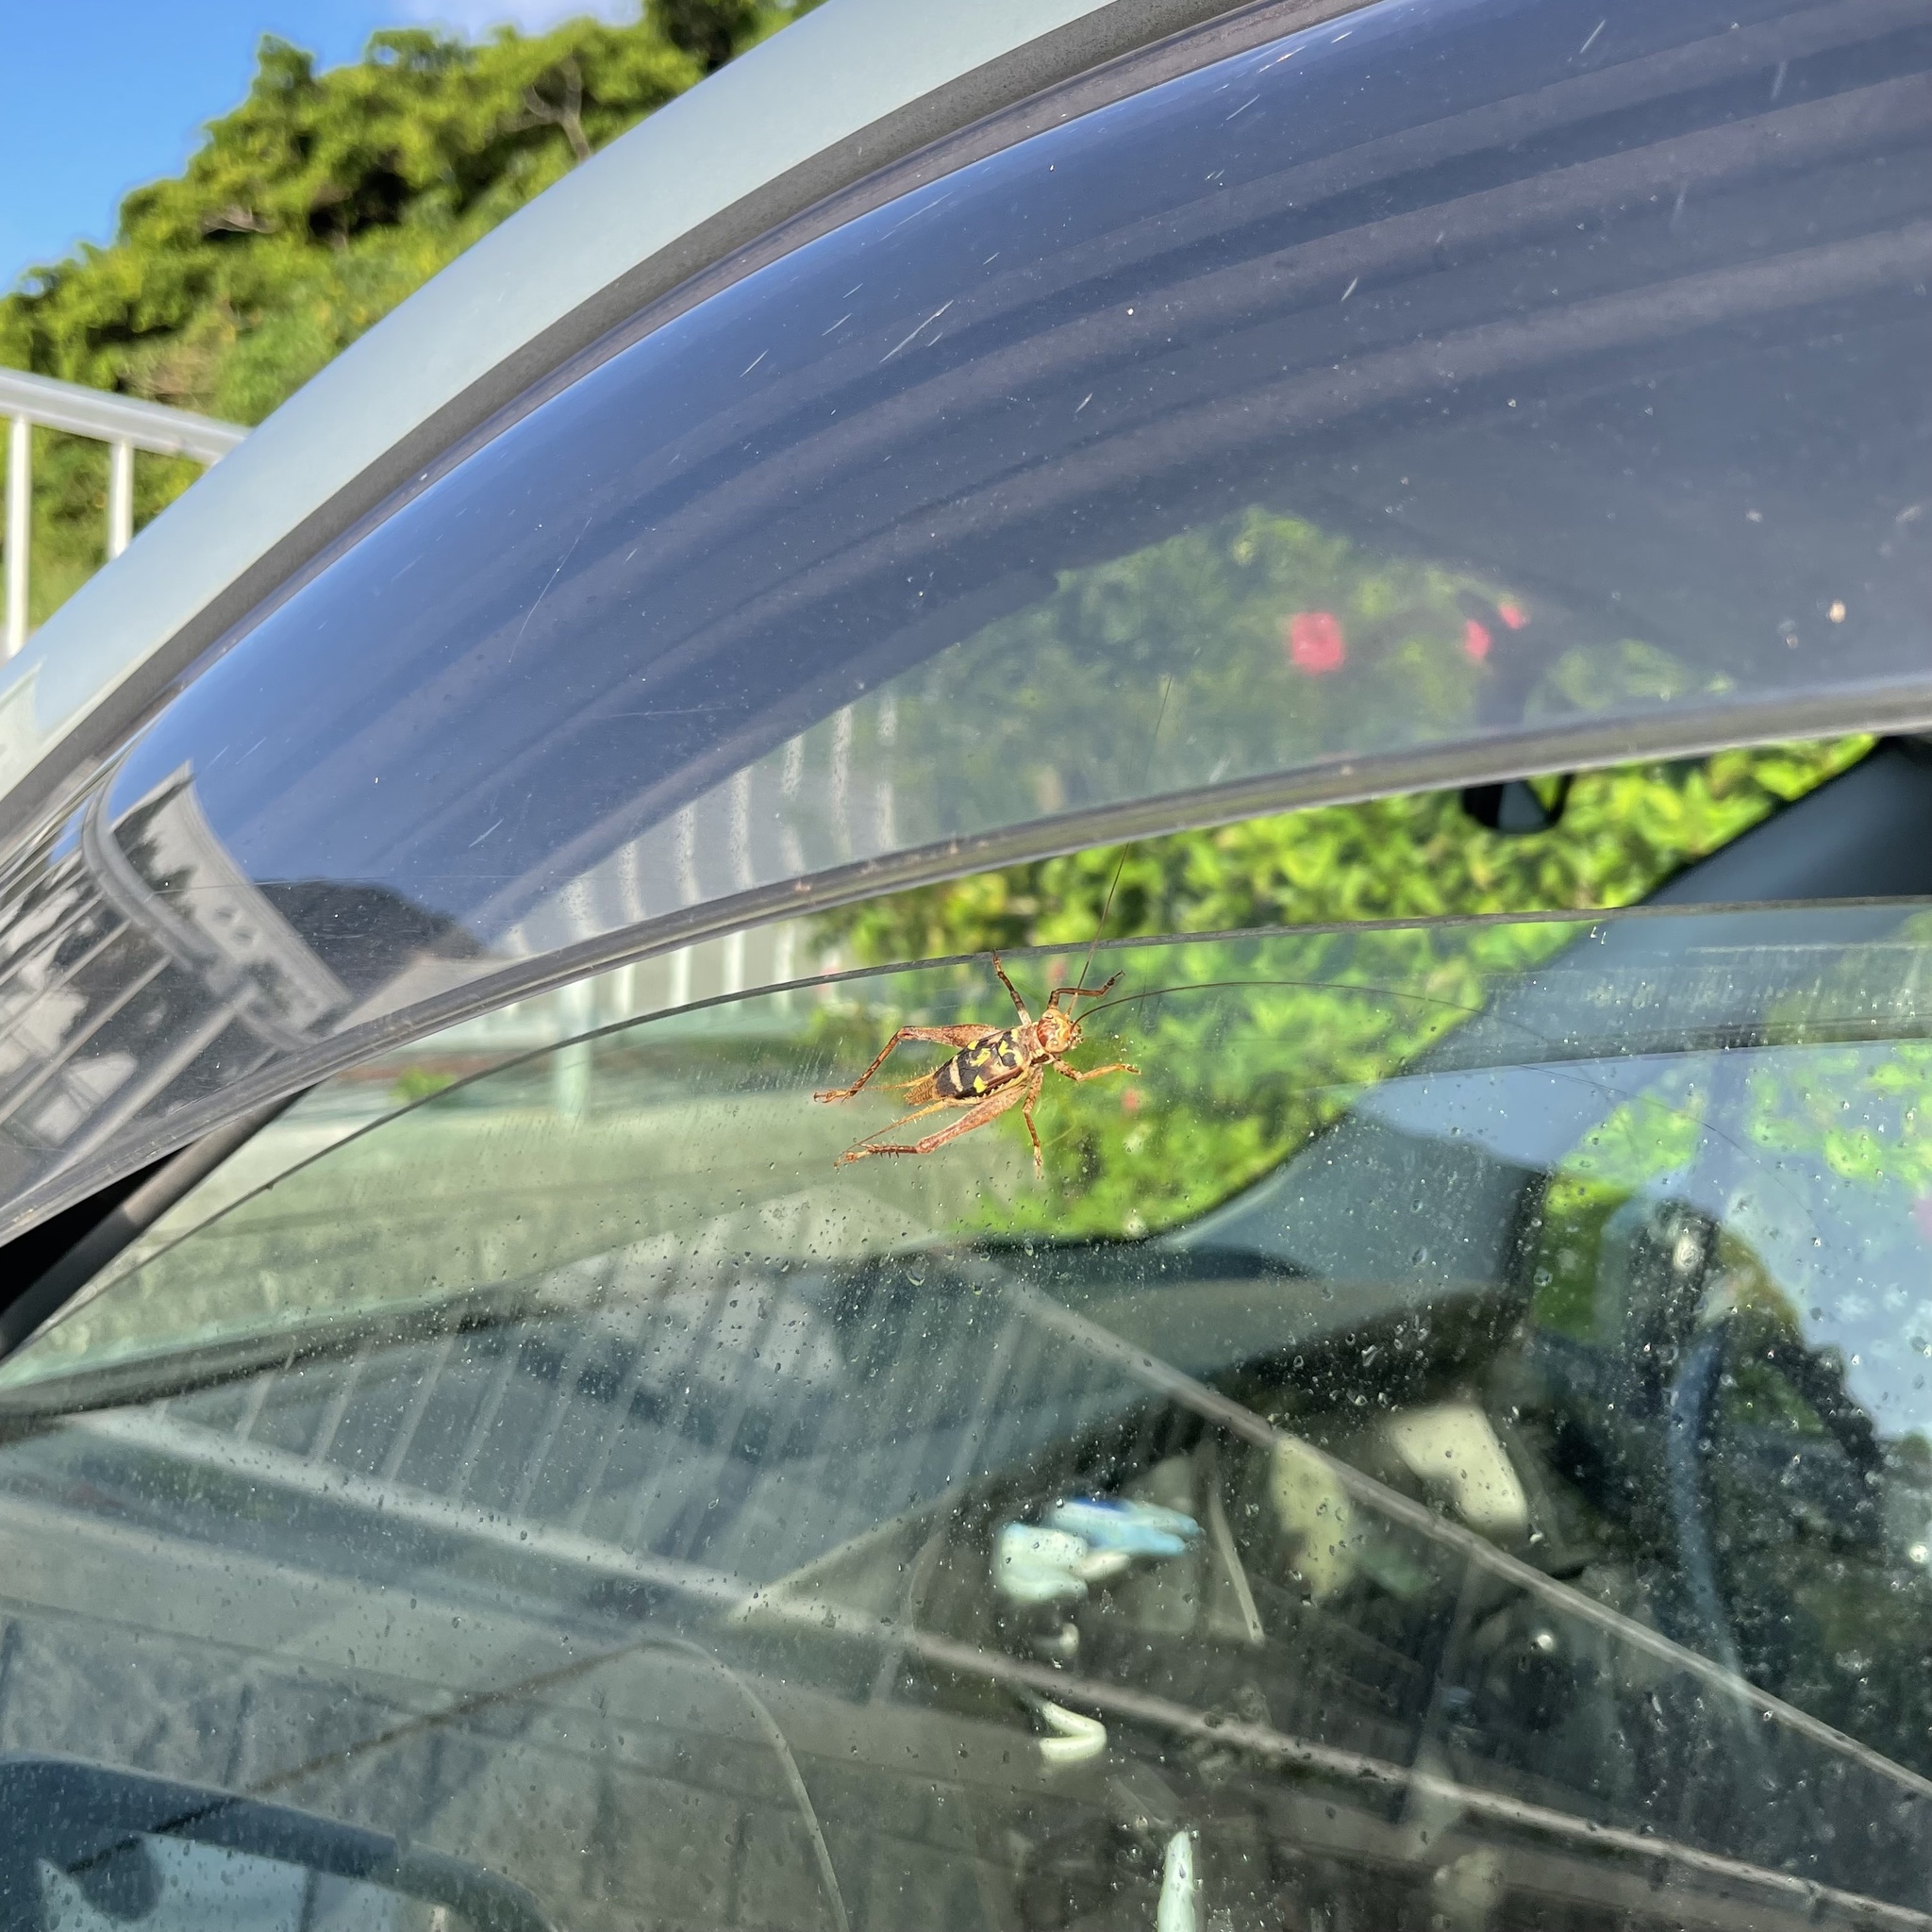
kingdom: Animalia
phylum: Arthropoda
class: Insecta
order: Orthoptera
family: Gryllidae
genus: Cardiodactylus
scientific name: Cardiodactylus guttulus
